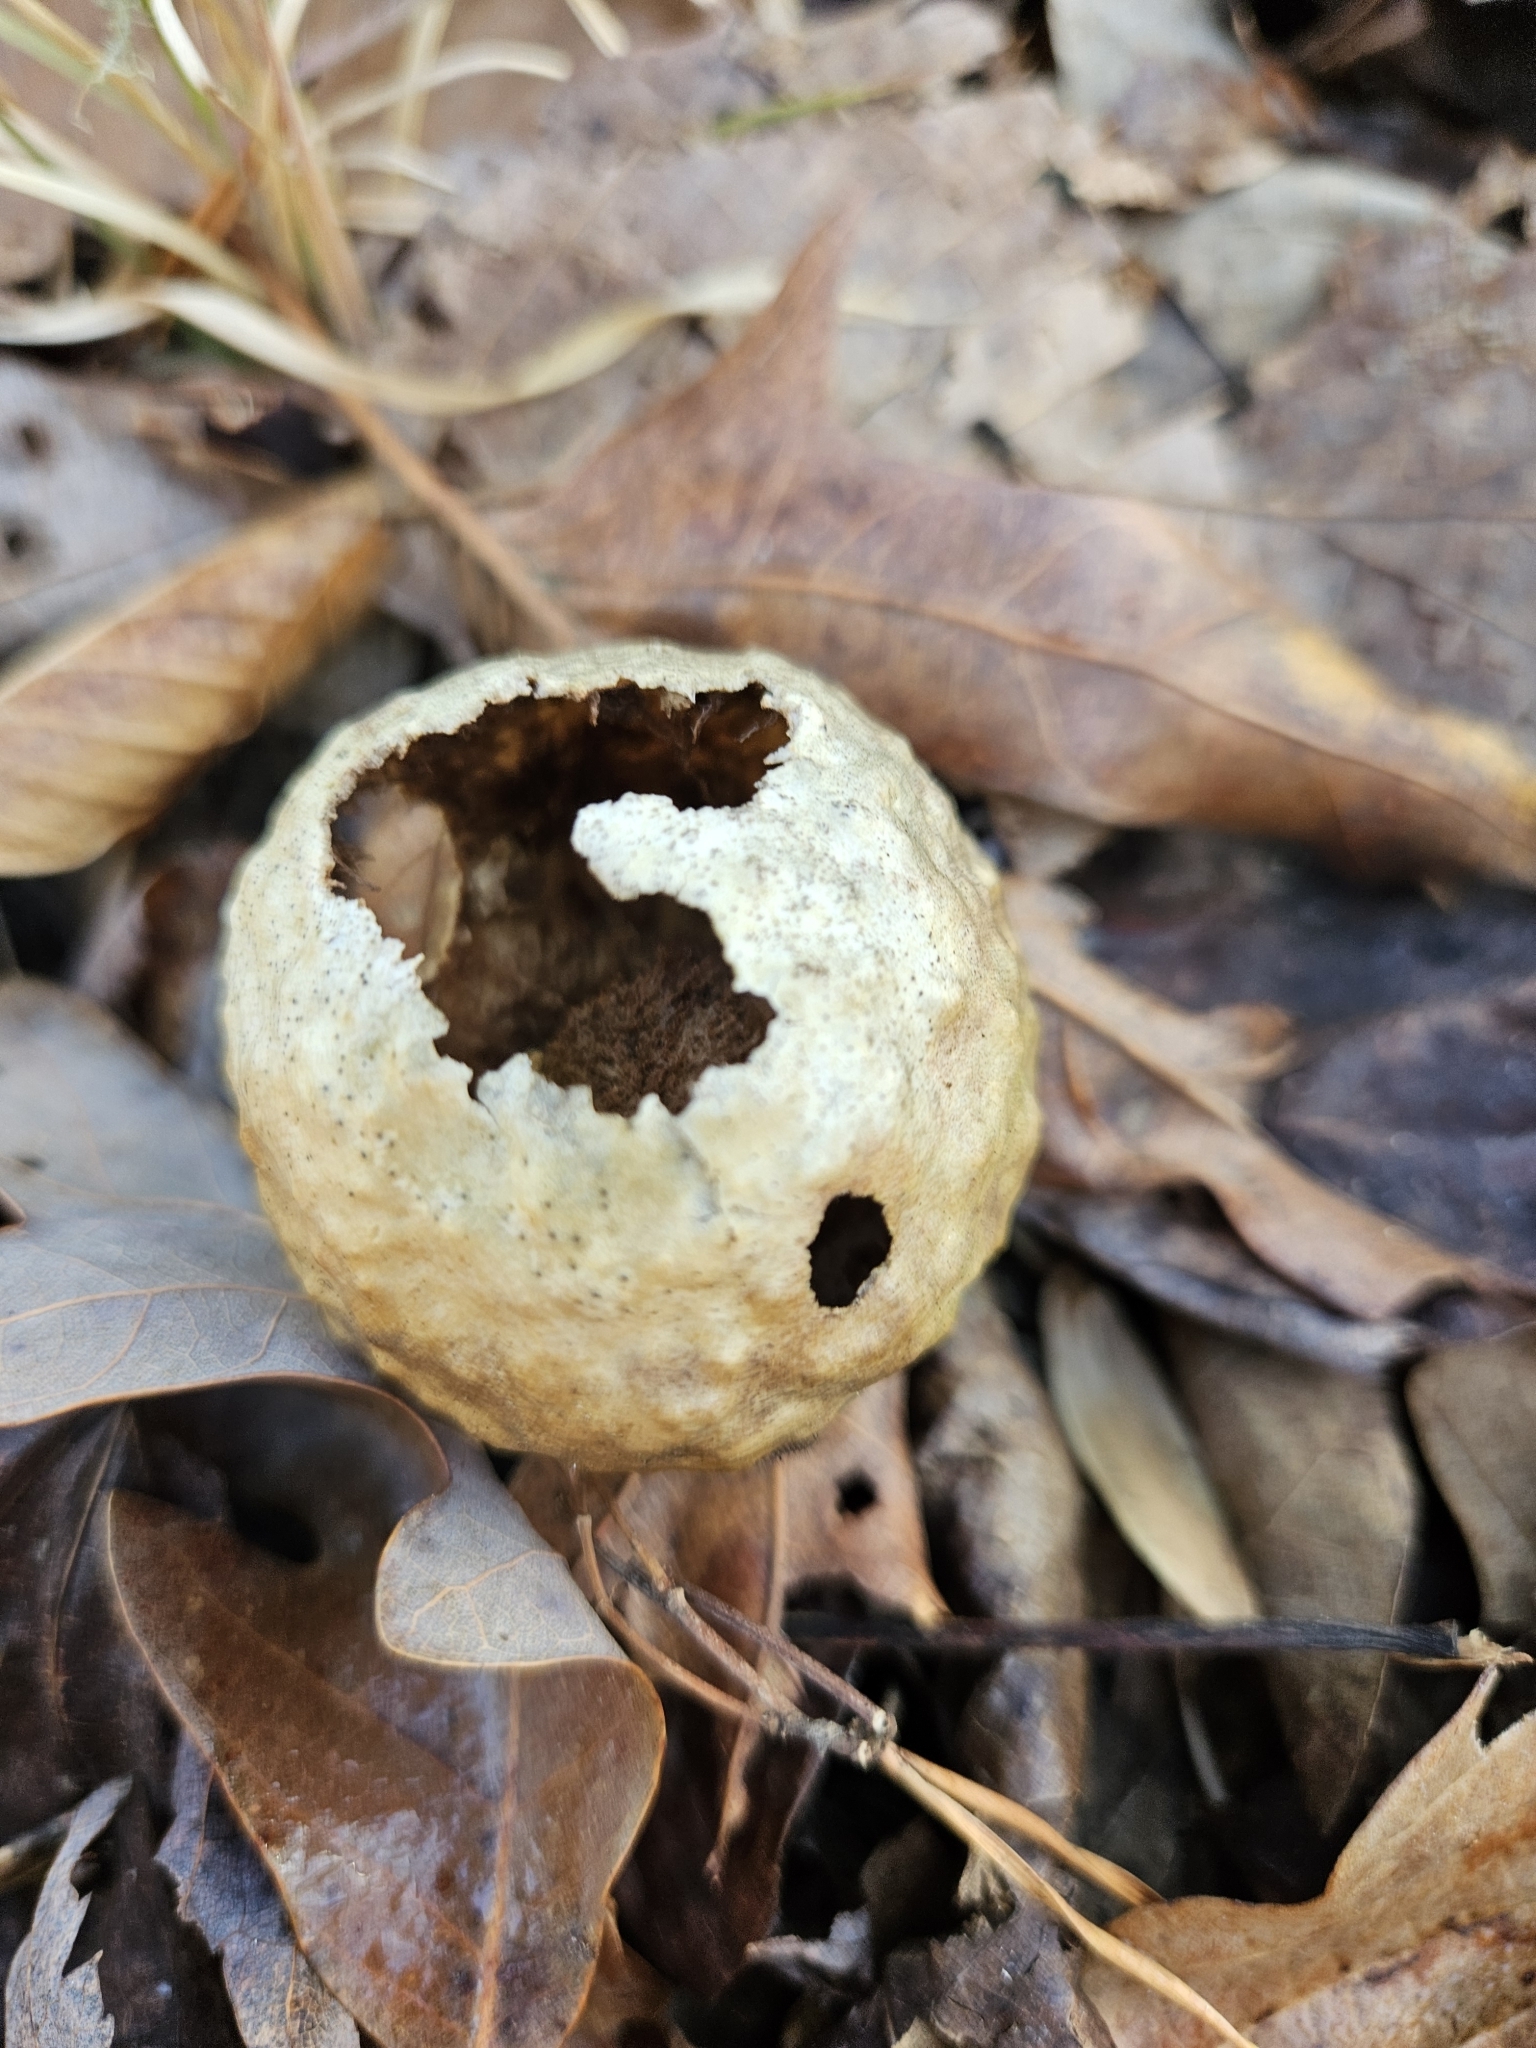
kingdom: Animalia
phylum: Arthropoda
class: Insecta
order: Hymenoptera
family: Cynipidae
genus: Amphibolips
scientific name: Amphibolips
